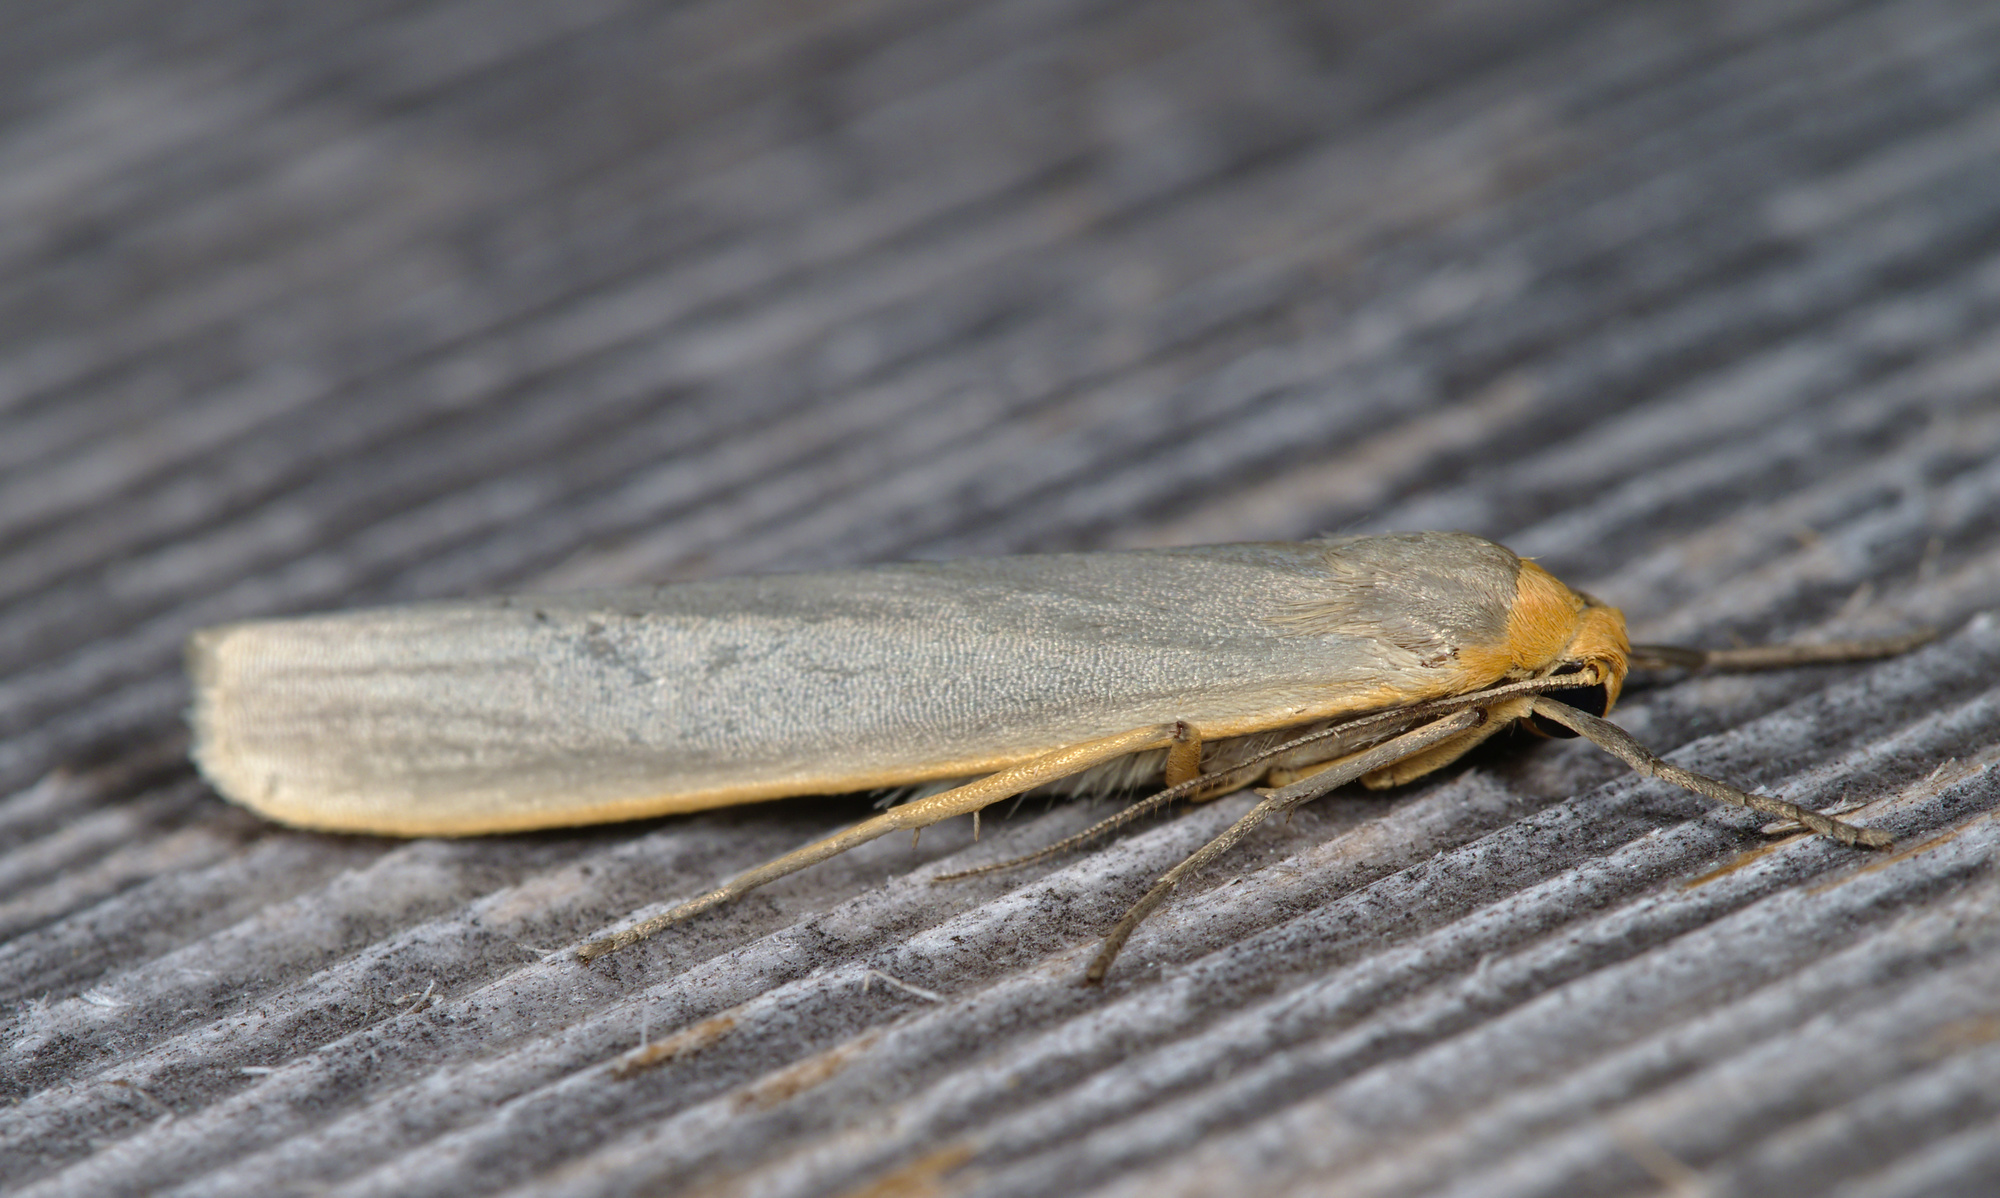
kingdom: Animalia
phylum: Arthropoda
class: Insecta
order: Lepidoptera
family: Erebidae
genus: Eilema
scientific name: Eilema caniola
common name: Hoary footman
